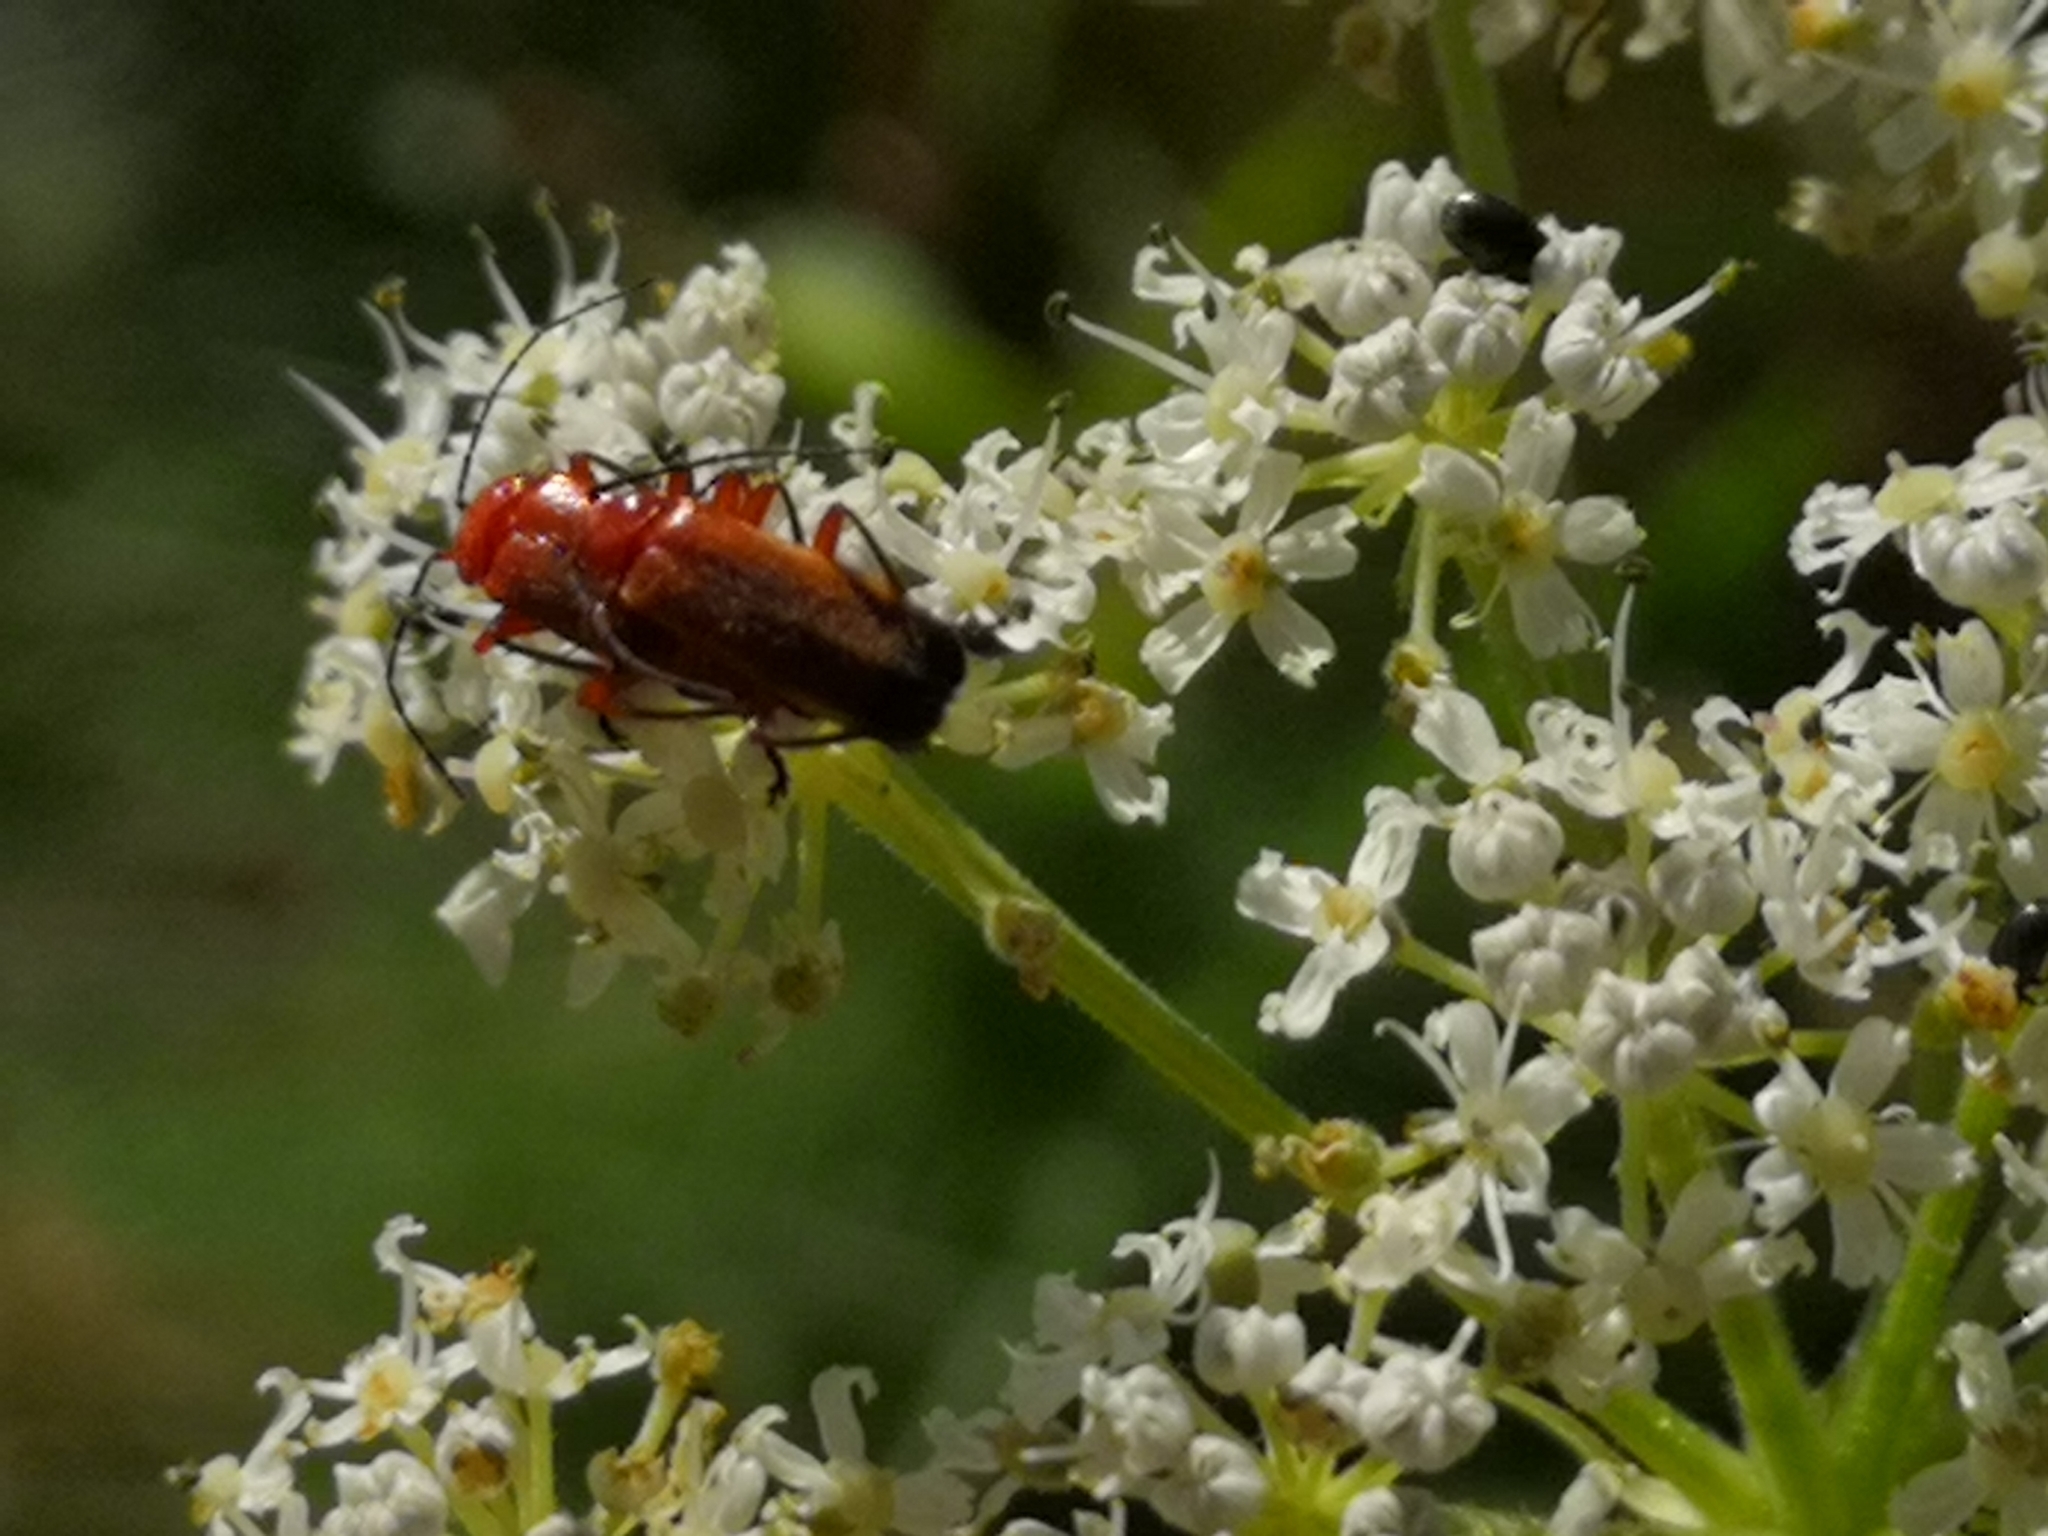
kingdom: Animalia
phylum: Arthropoda
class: Insecta
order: Coleoptera
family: Cantharidae
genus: Rhagonycha
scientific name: Rhagonycha fulva
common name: Common red soldier beetle
